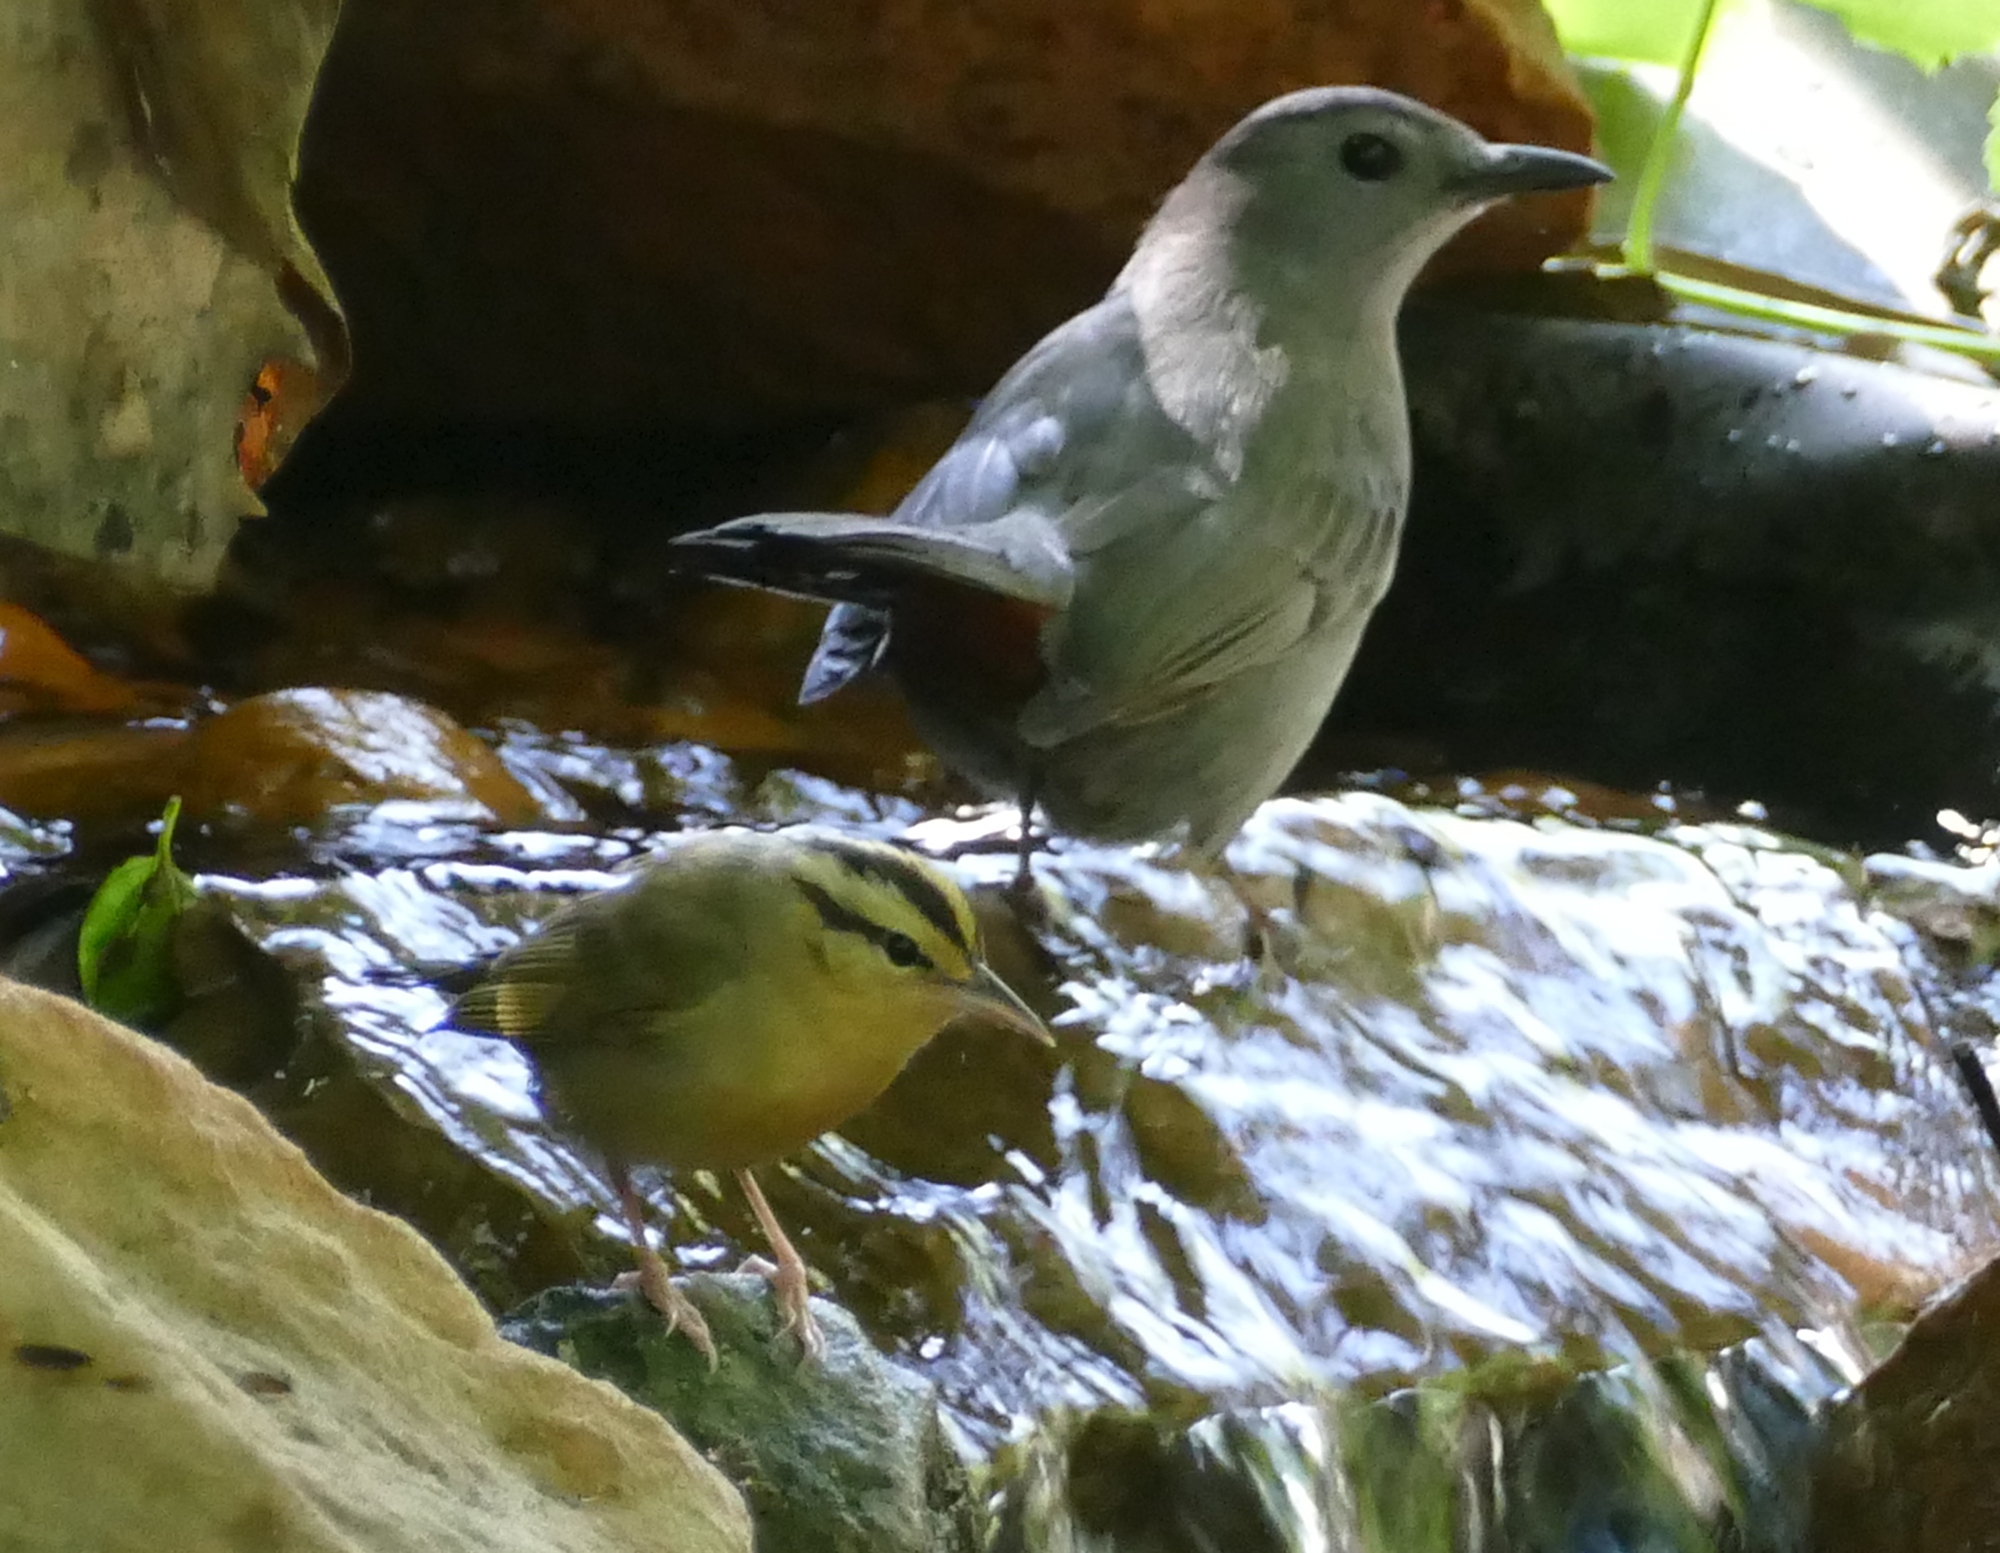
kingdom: Animalia
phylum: Chordata
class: Aves
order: Passeriformes
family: Parulidae
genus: Helmitheros
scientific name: Helmitheros vermivorum
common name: Worm-eating warbler
